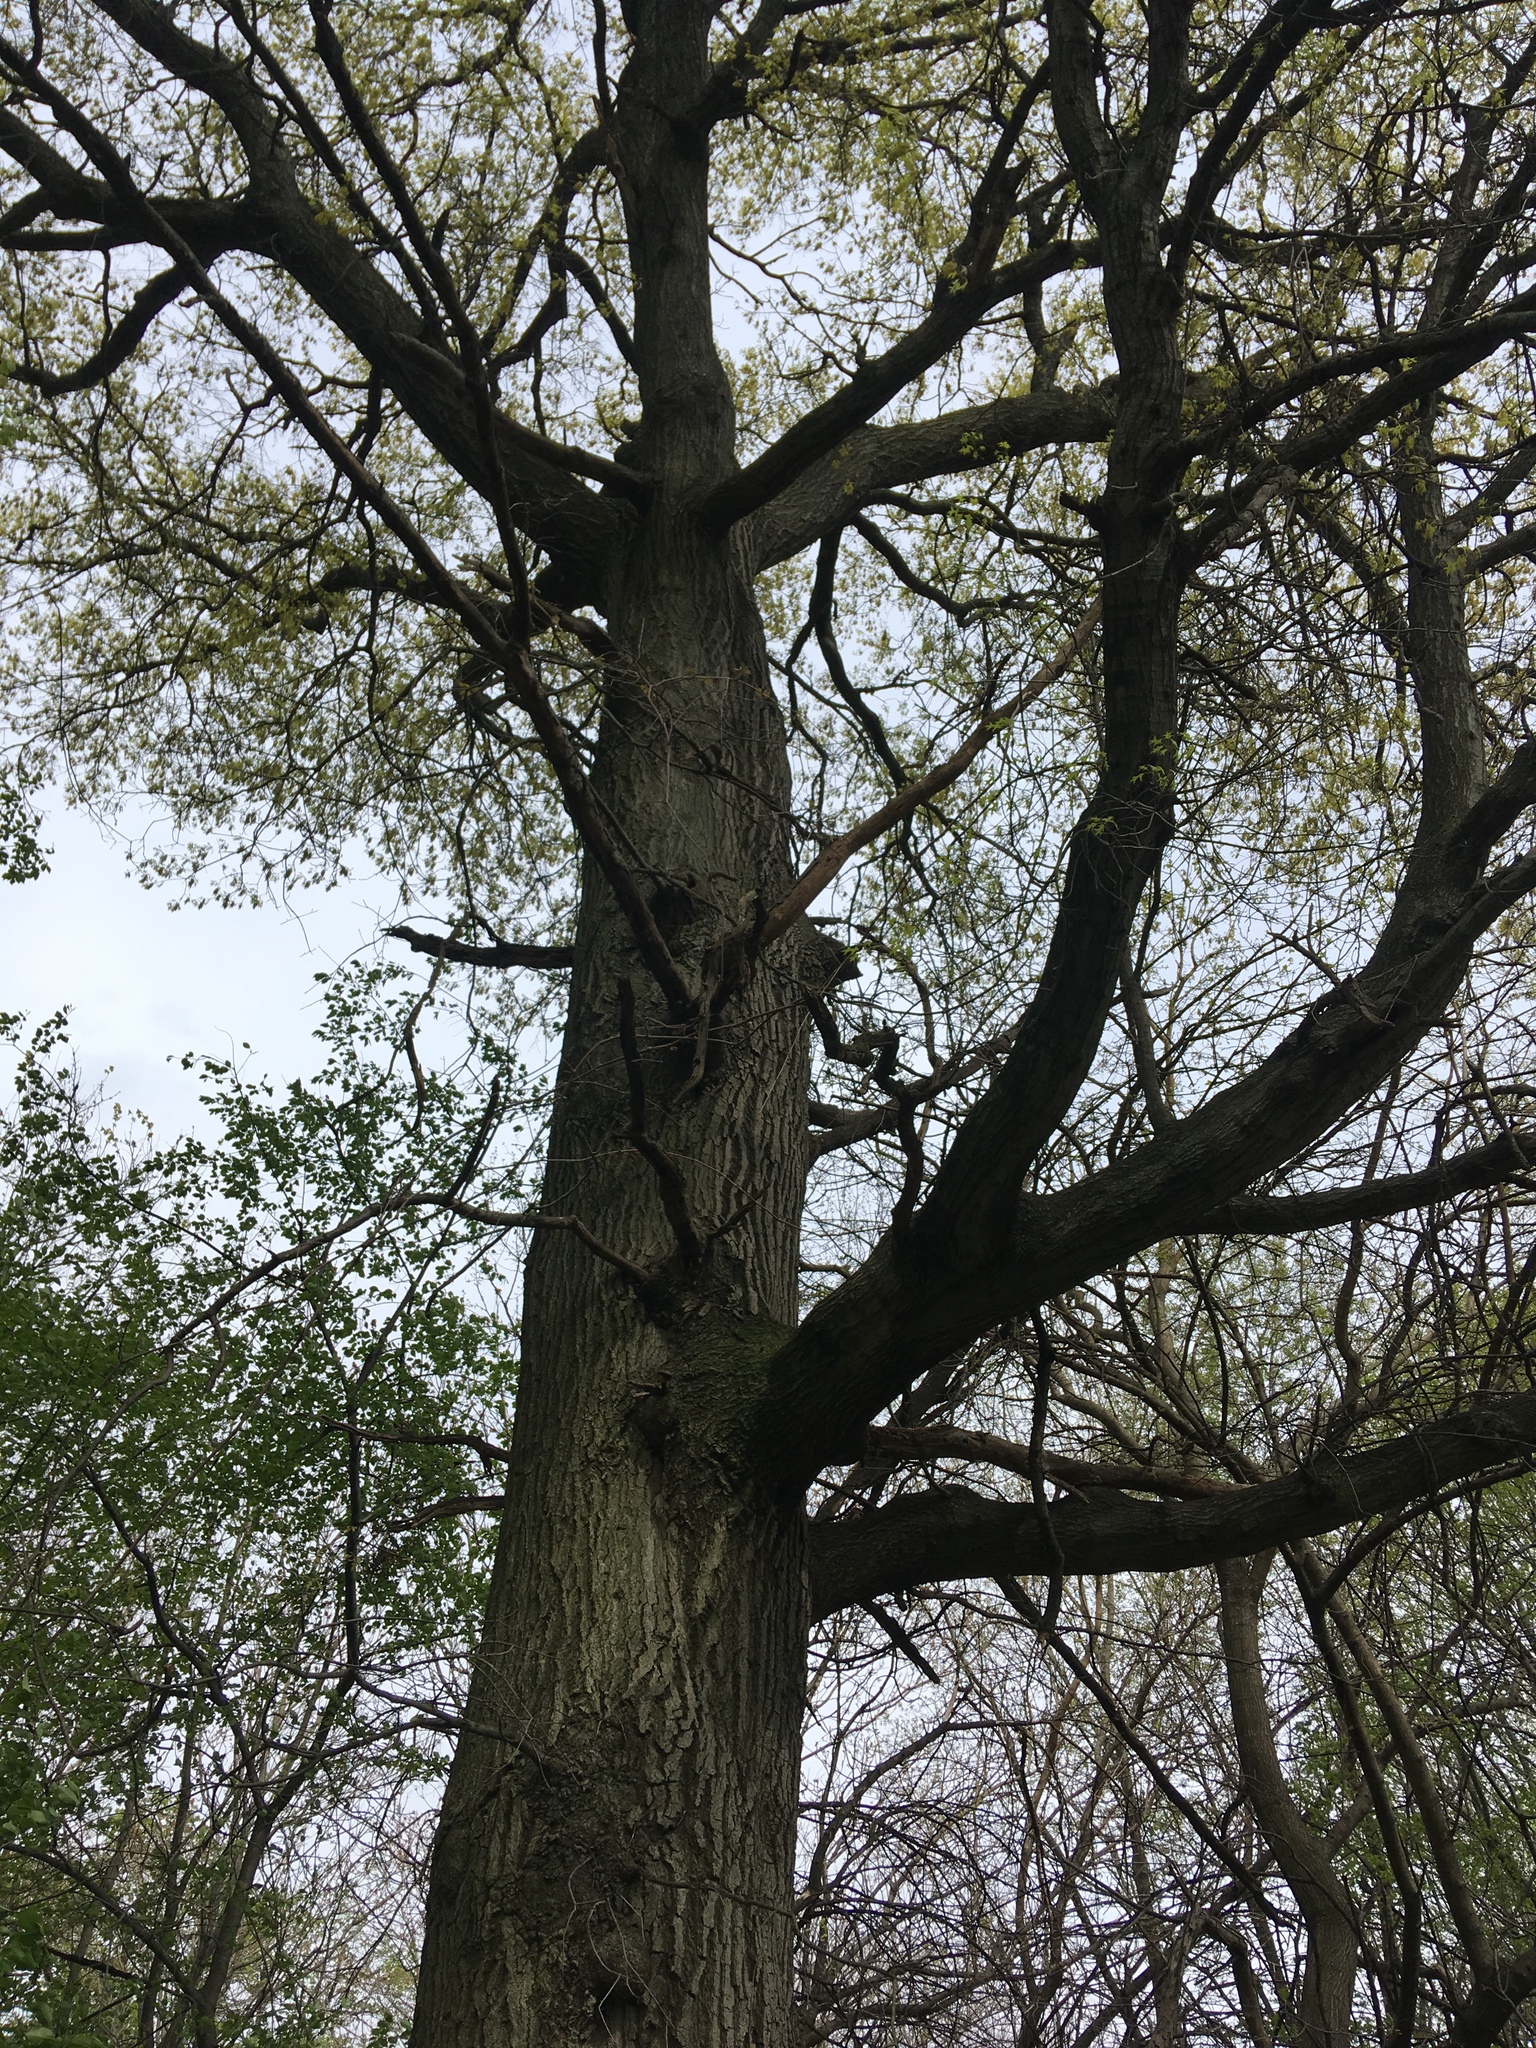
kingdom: Plantae
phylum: Tracheophyta
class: Magnoliopsida
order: Fagales
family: Fagaceae
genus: Quercus
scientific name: Quercus rubra
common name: Red oak
